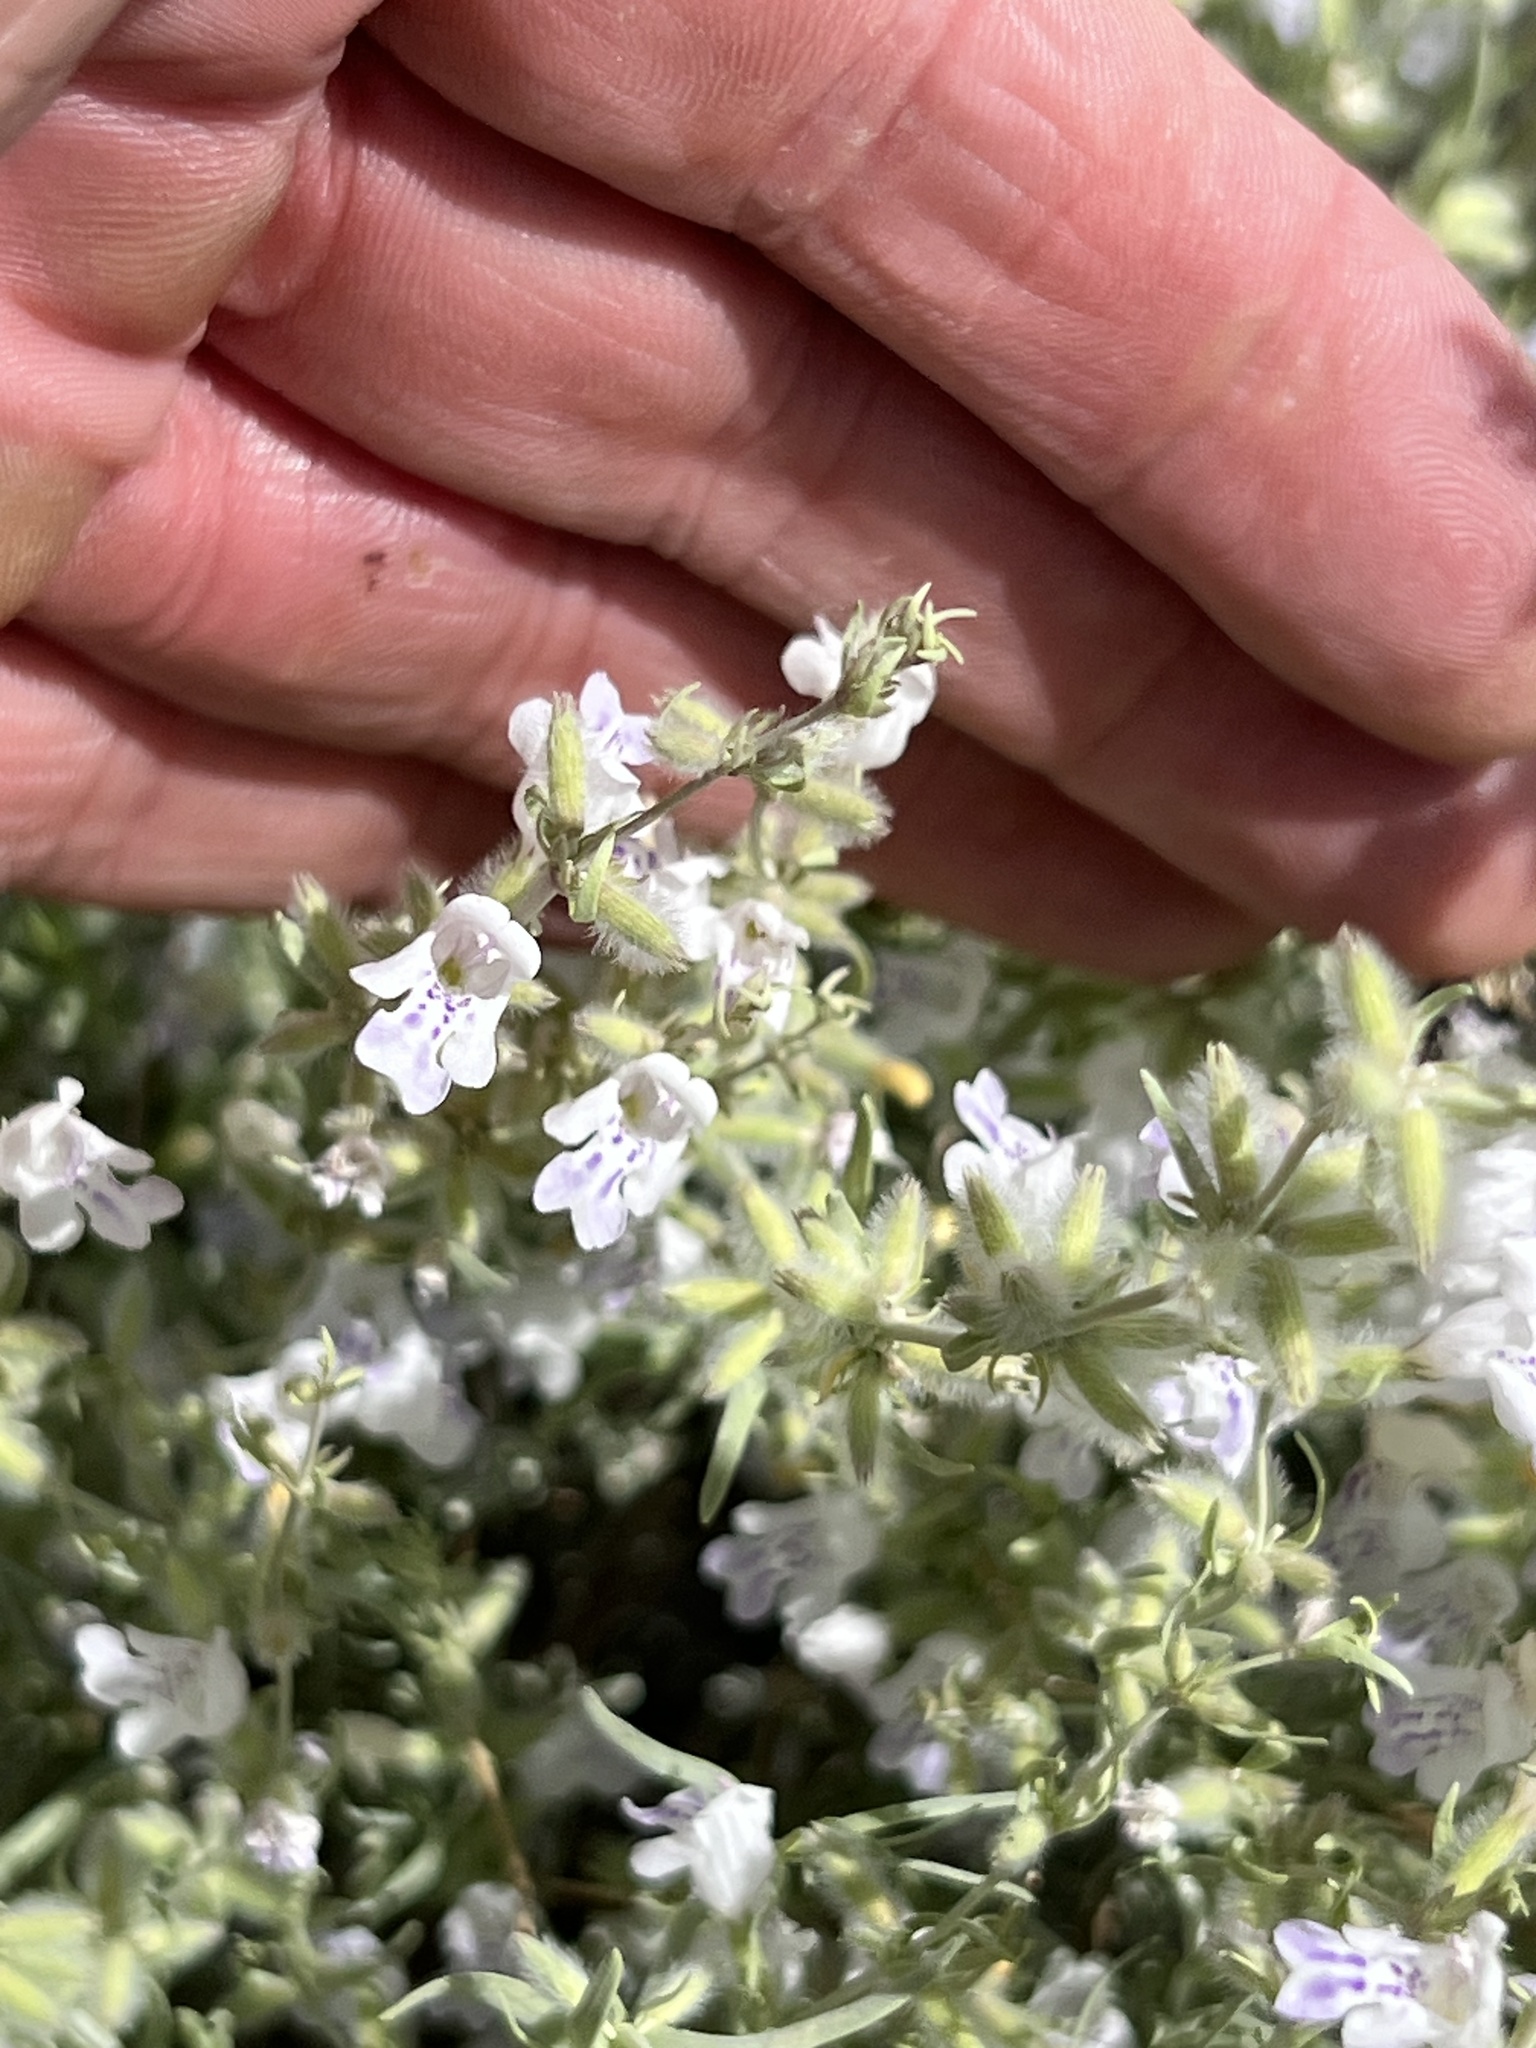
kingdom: Plantae
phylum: Tracheophyta
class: Magnoliopsida
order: Lamiales
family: Lamiaceae
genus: Poliomintha
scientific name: Poliomintha incana
